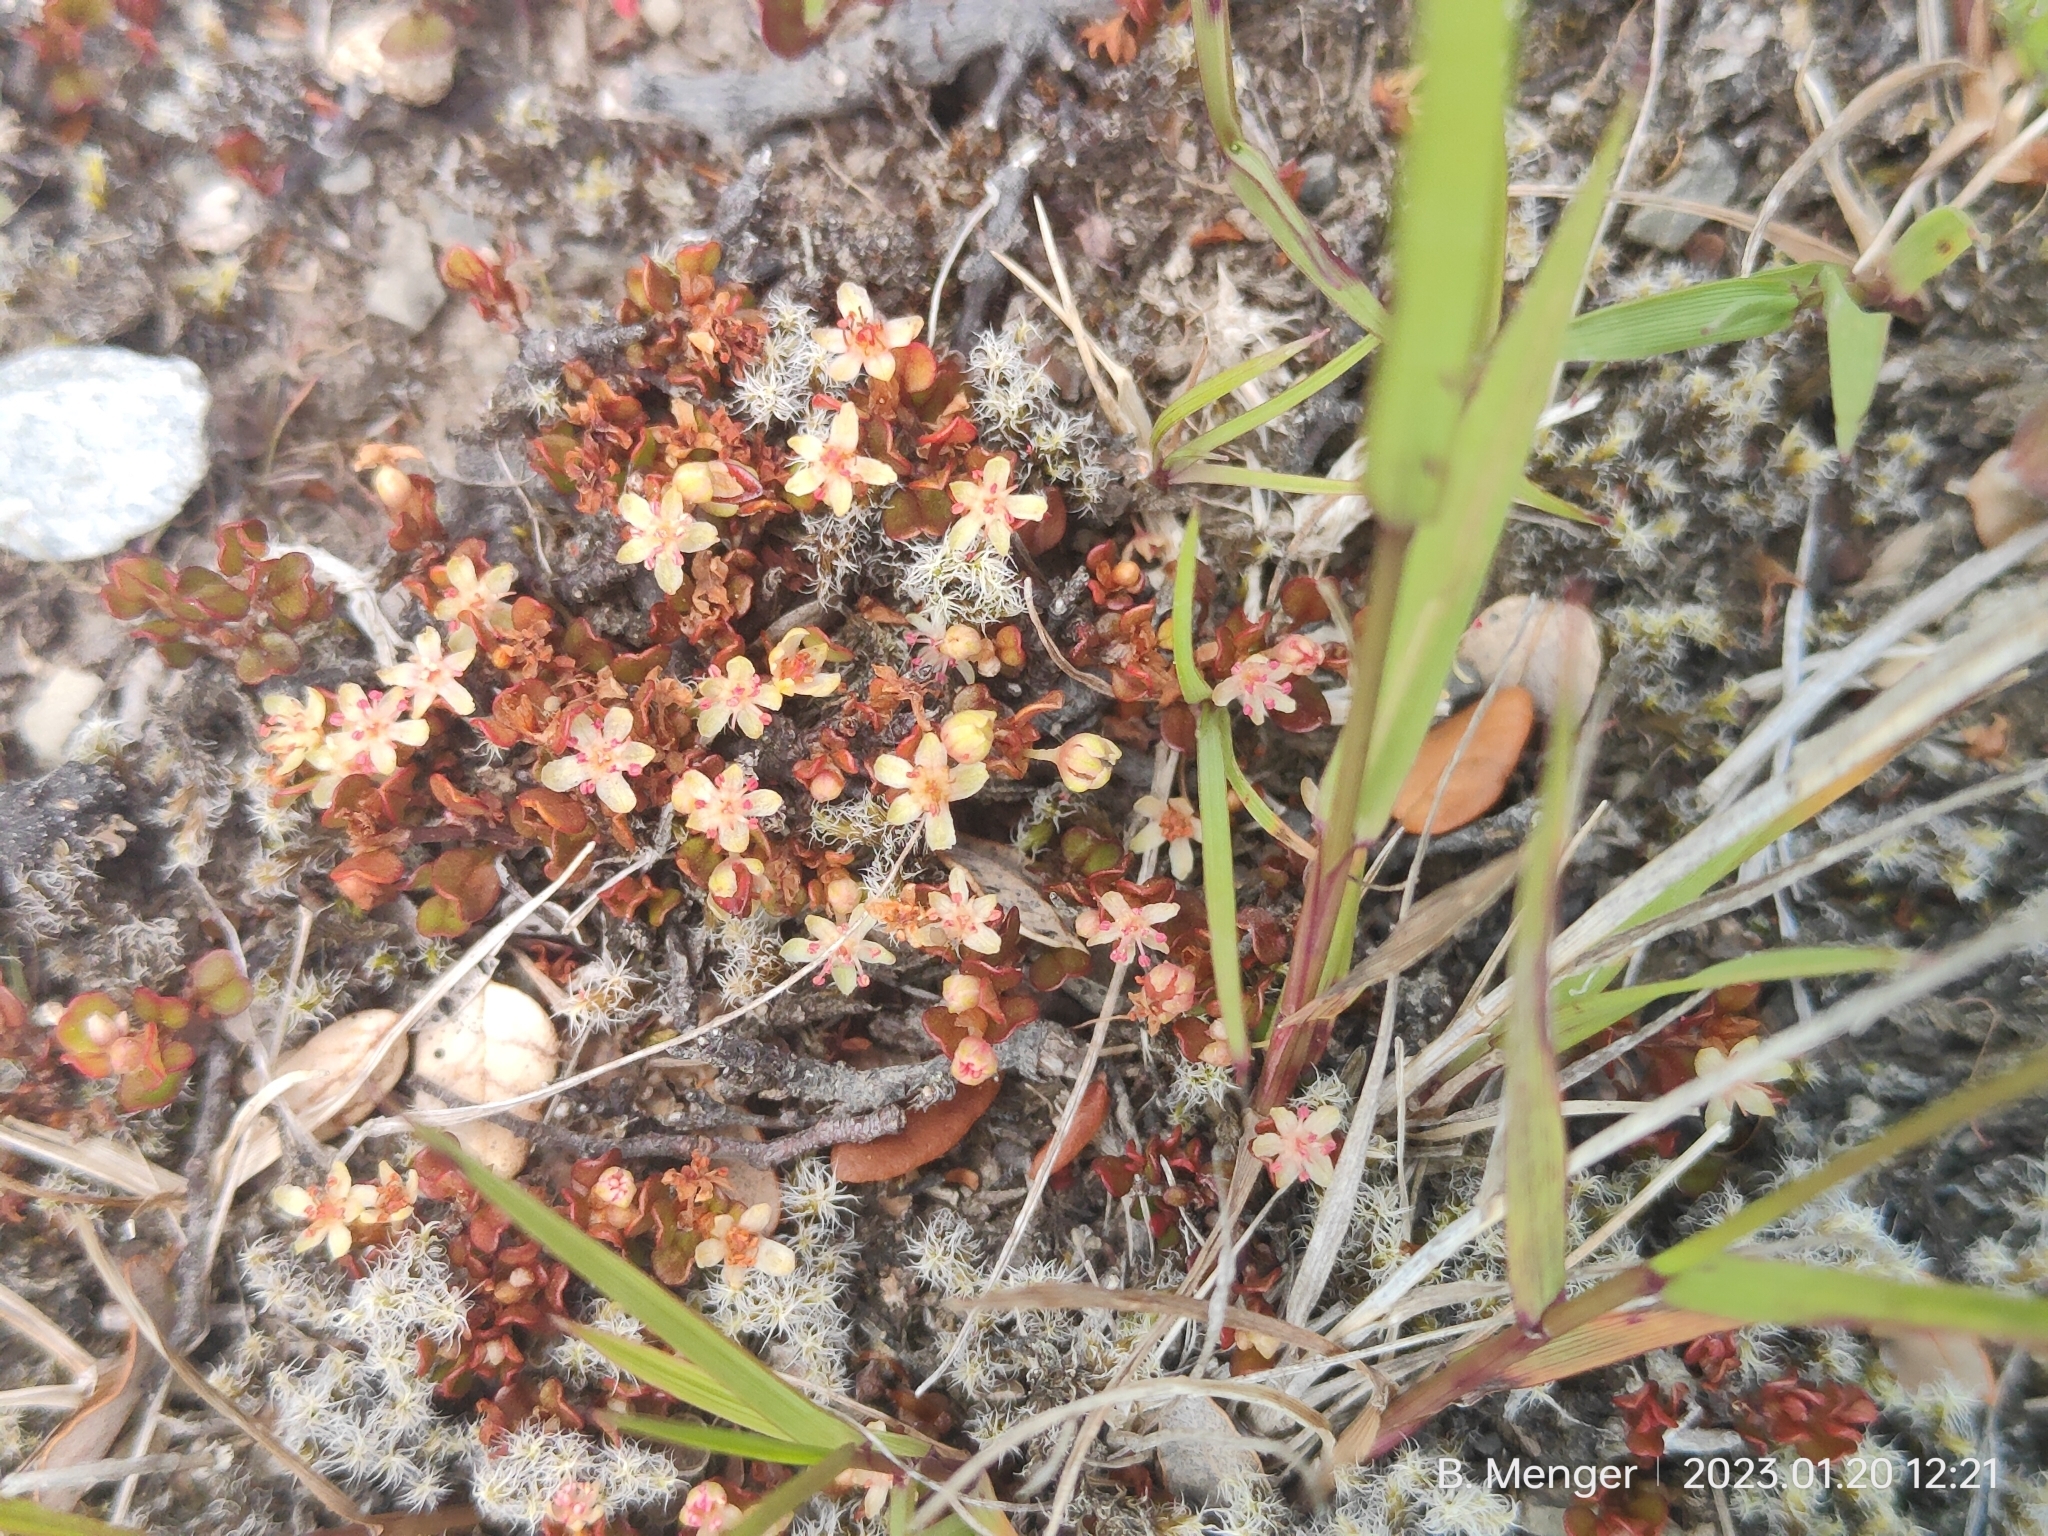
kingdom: Plantae
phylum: Tracheophyta
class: Magnoliopsida
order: Caryophyllales
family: Polygonaceae
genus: Muehlenbeckia
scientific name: Muehlenbeckia axillaris
